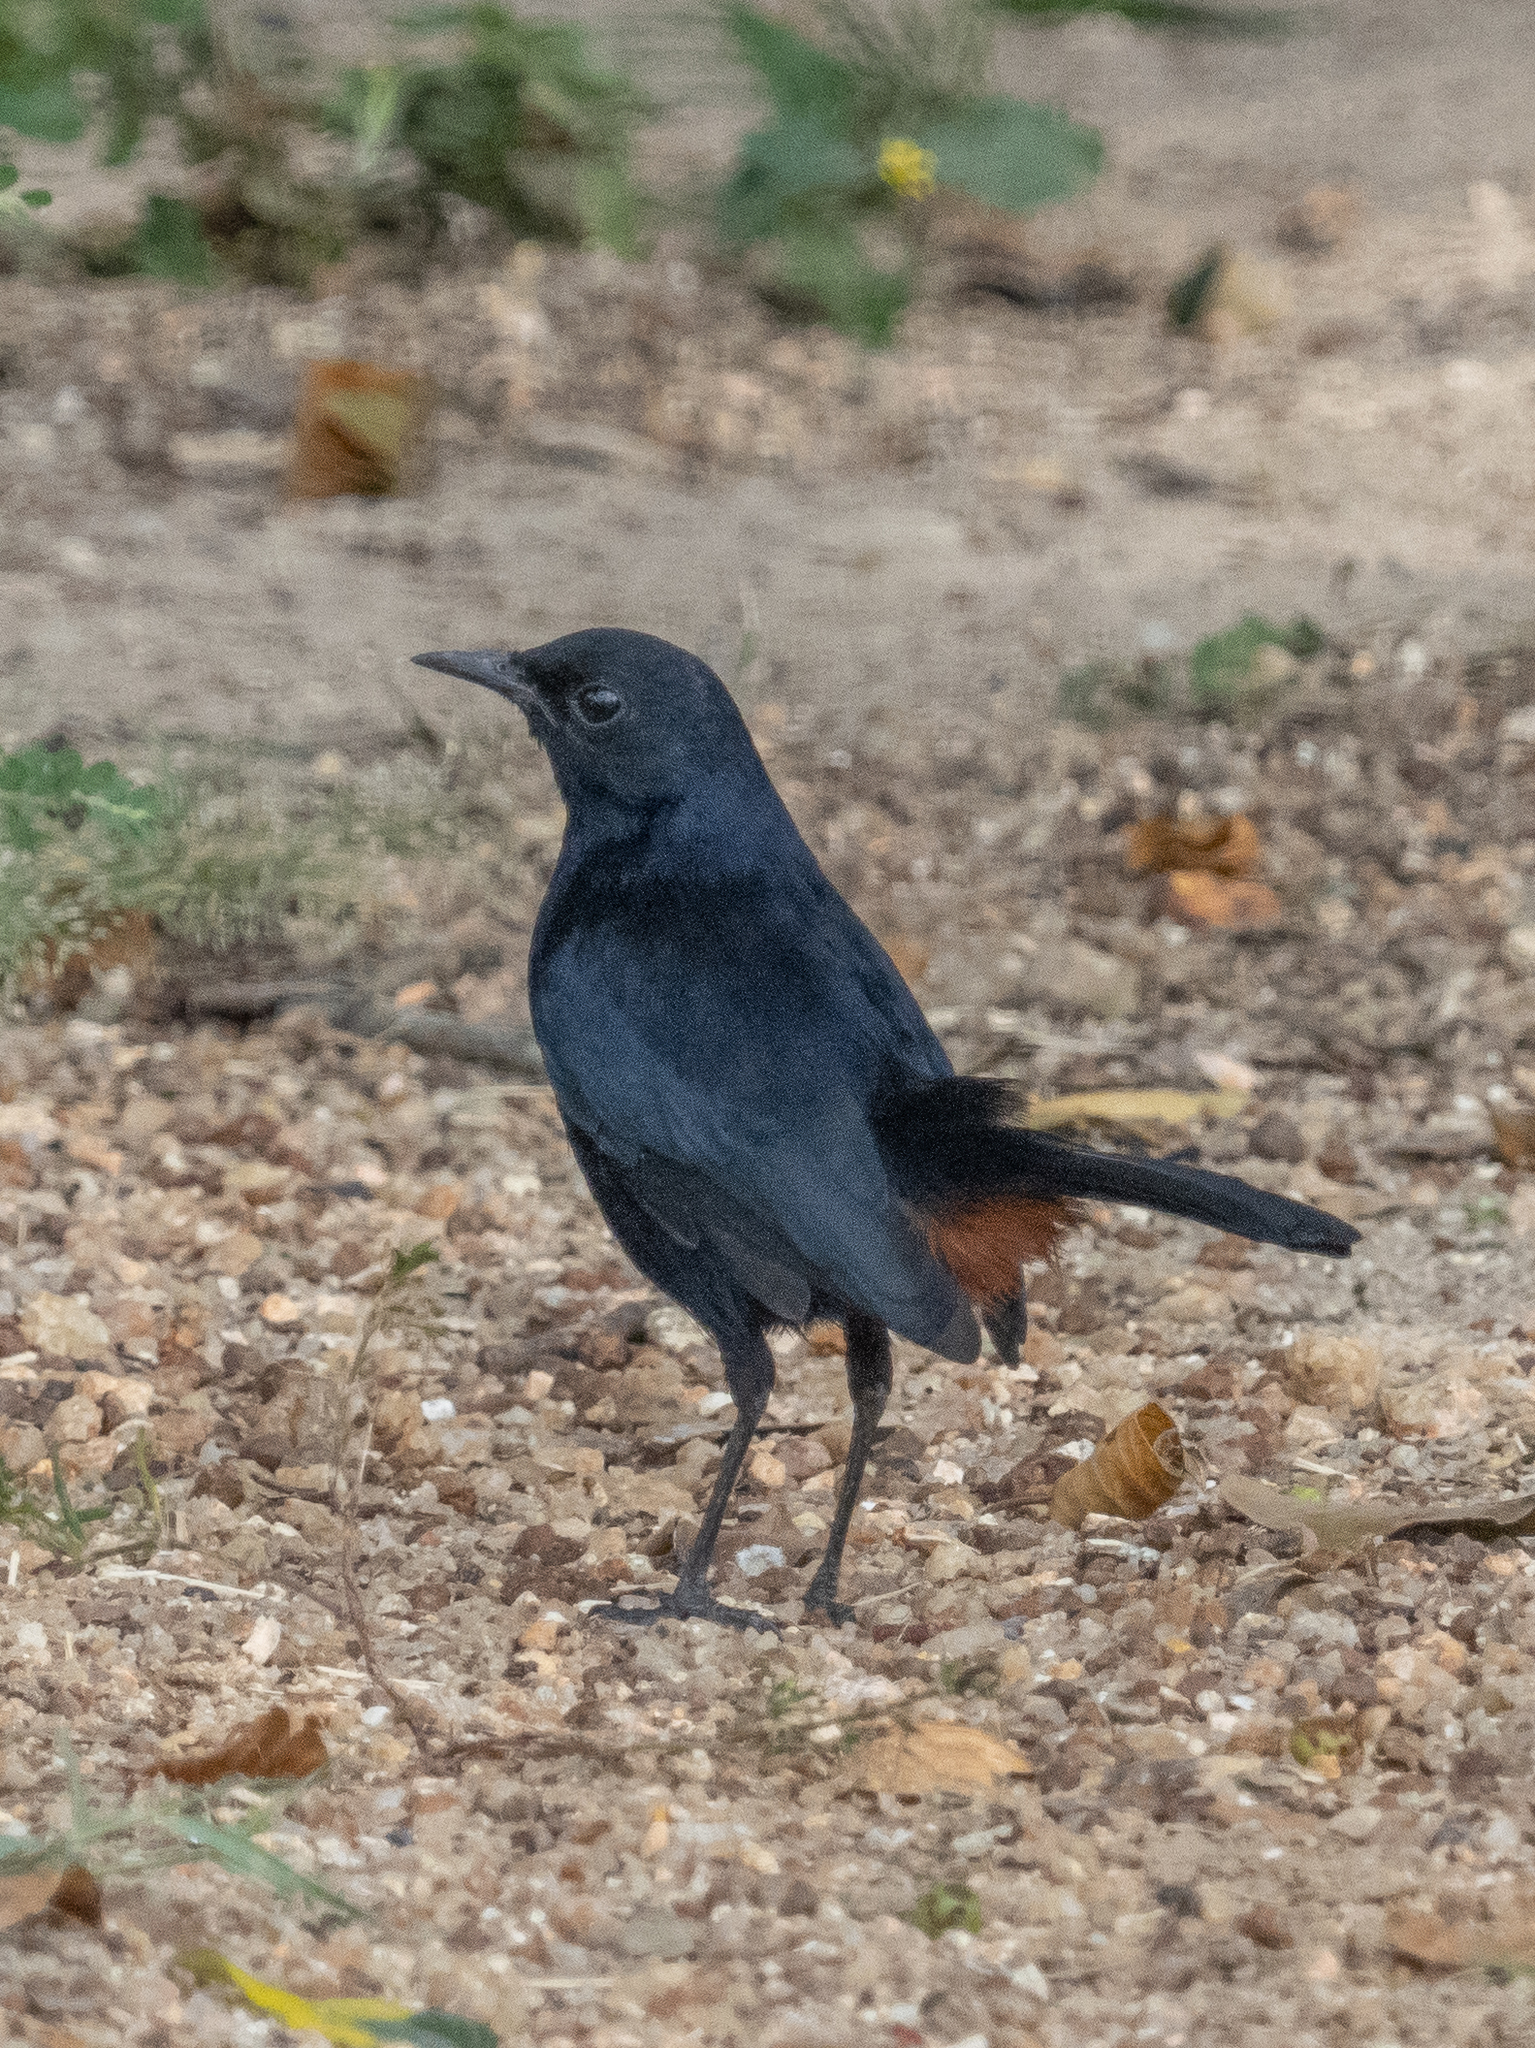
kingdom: Animalia
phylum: Chordata
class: Aves
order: Passeriformes
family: Muscicapidae
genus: Saxicoloides
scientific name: Saxicoloides fulicatus
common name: Indian robin
